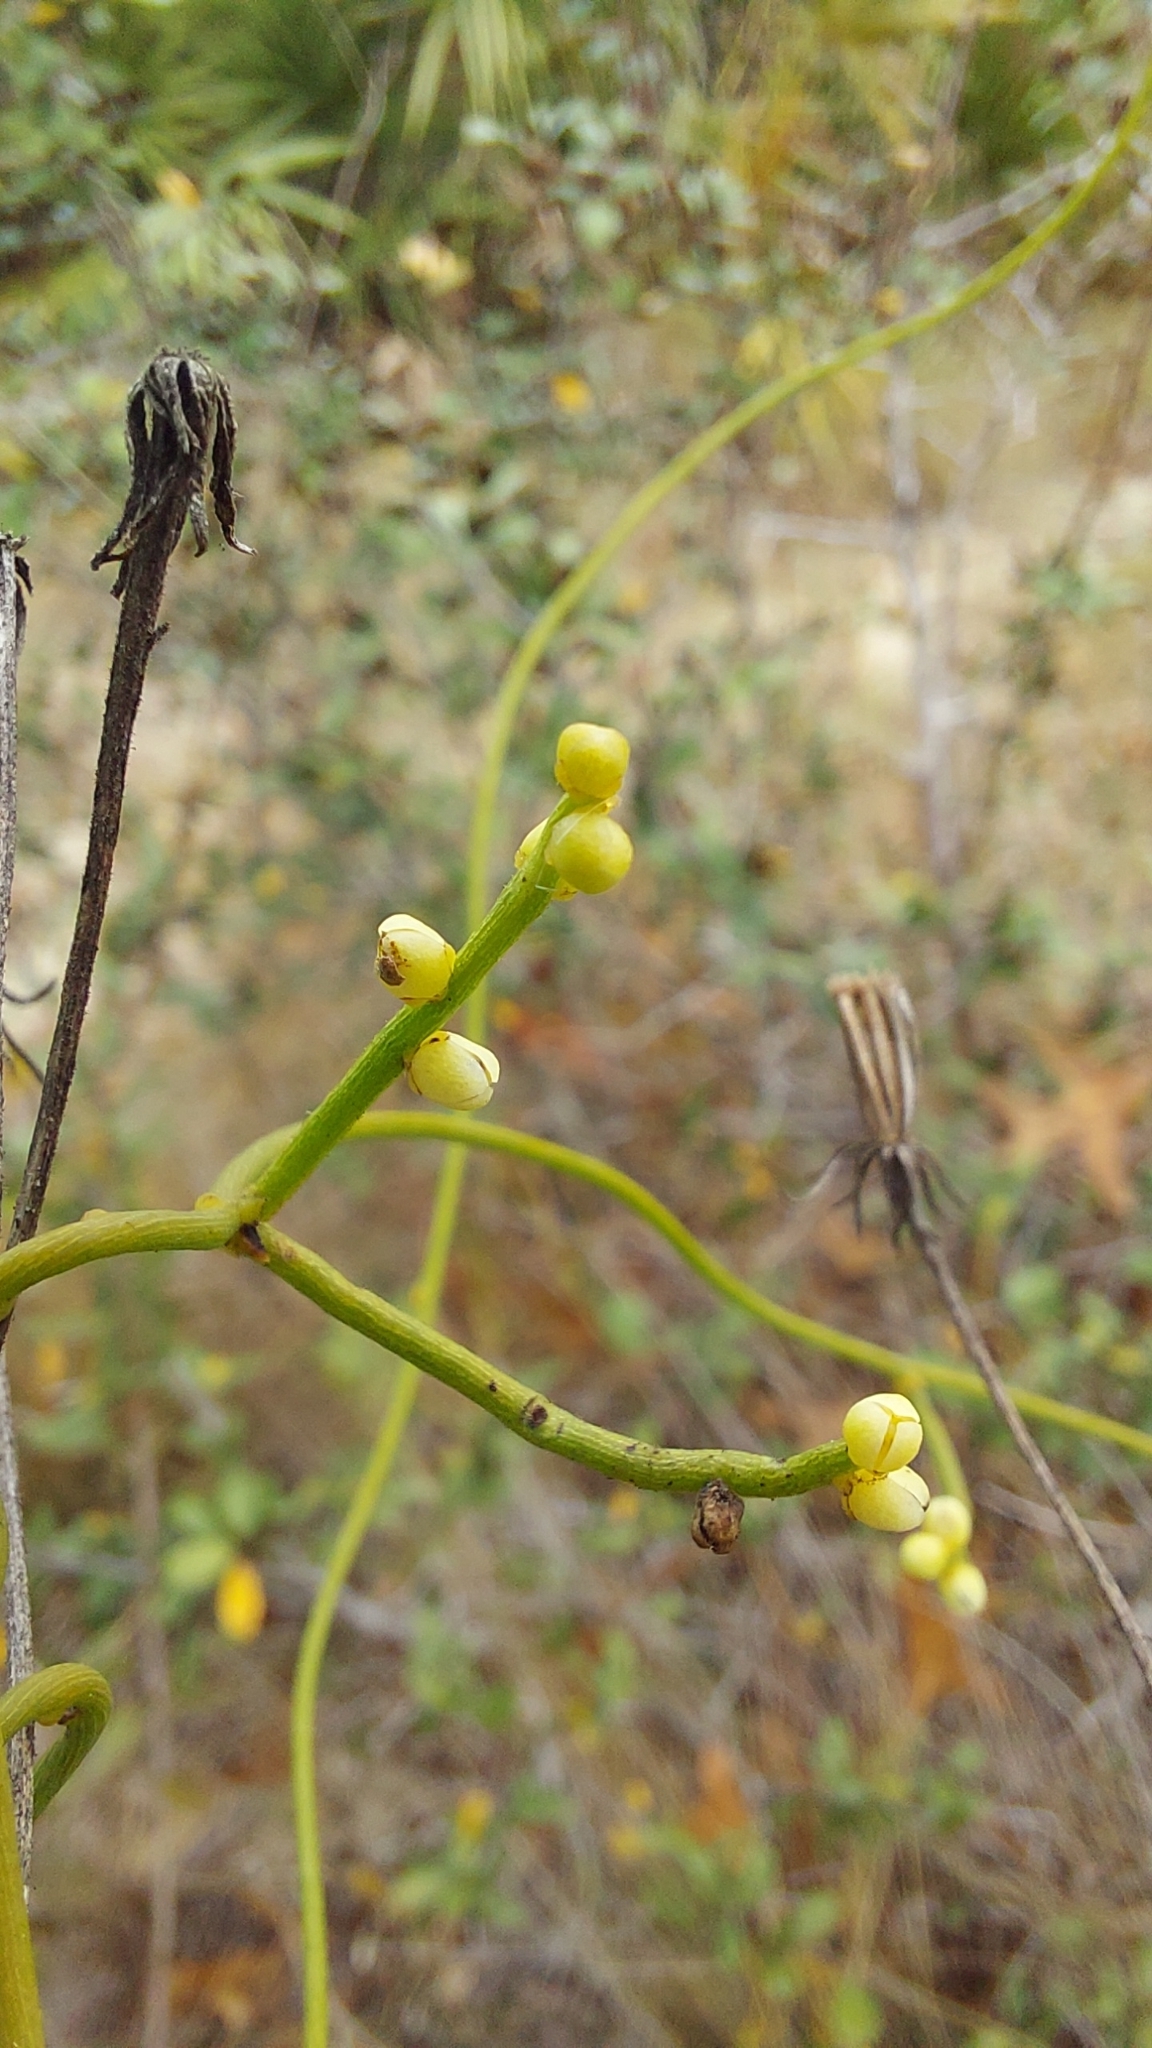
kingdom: Plantae
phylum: Tracheophyta
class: Magnoliopsida
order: Laurales
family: Lauraceae
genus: Cassytha
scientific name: Cassytha filiformis
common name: Dodder-laurel
